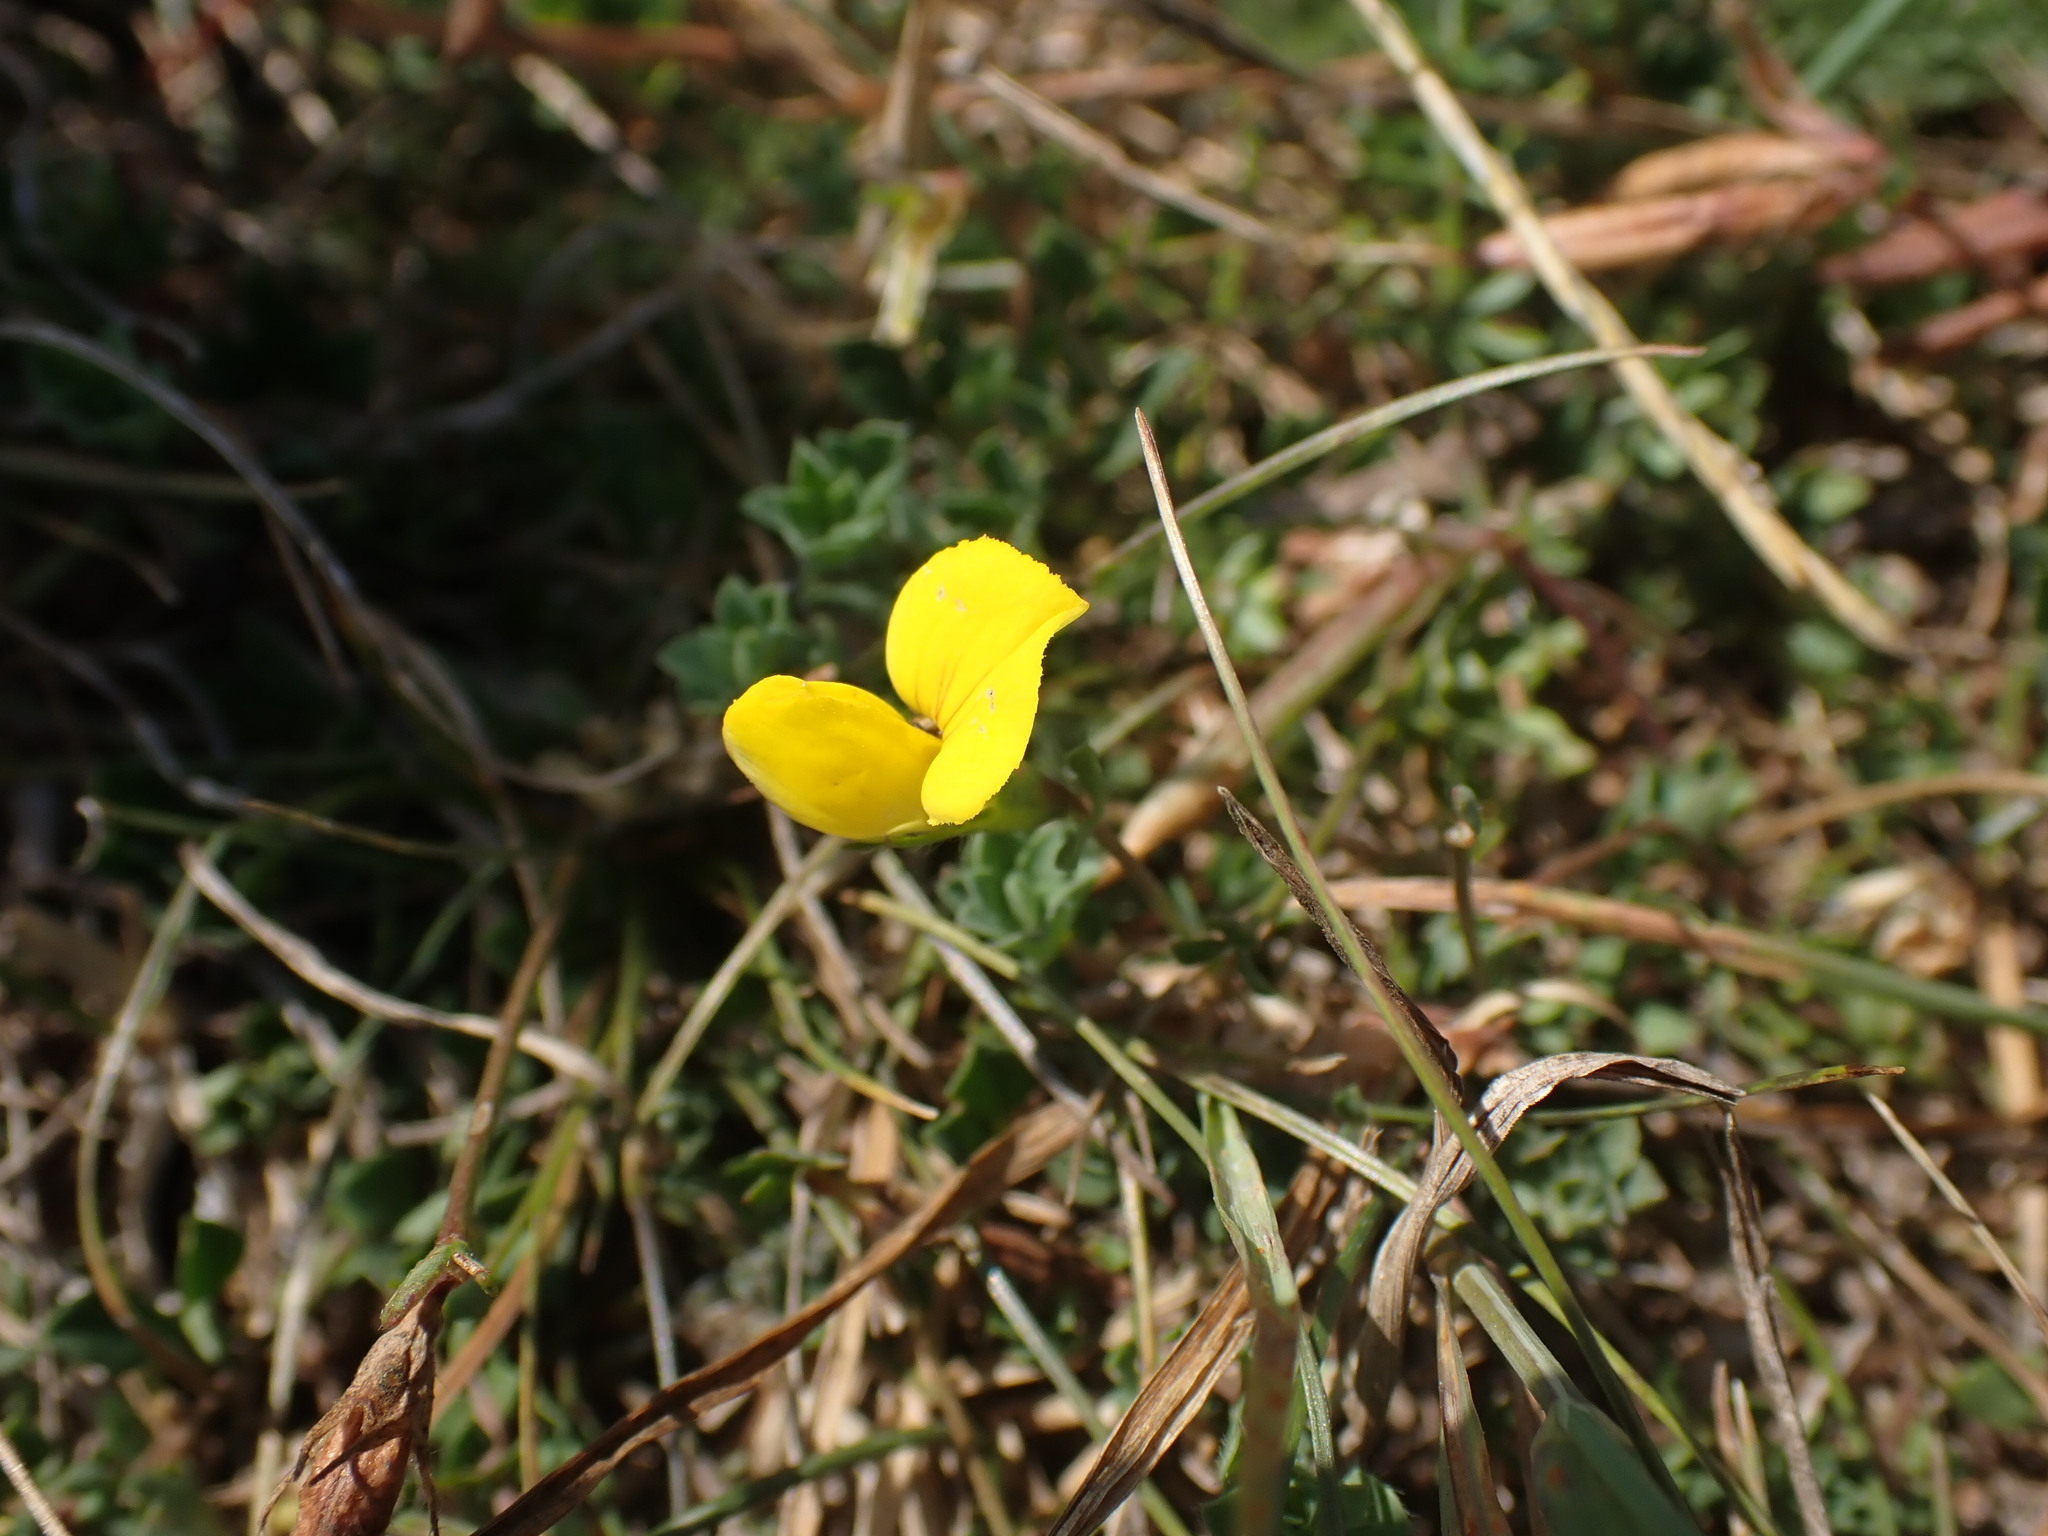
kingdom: Plantae
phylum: Tracheophyta
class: Magnoliopsida
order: Fabales
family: Fabaceae
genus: Lotus
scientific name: Lotus corniculatus
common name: Common bird's-foot-trefoil
